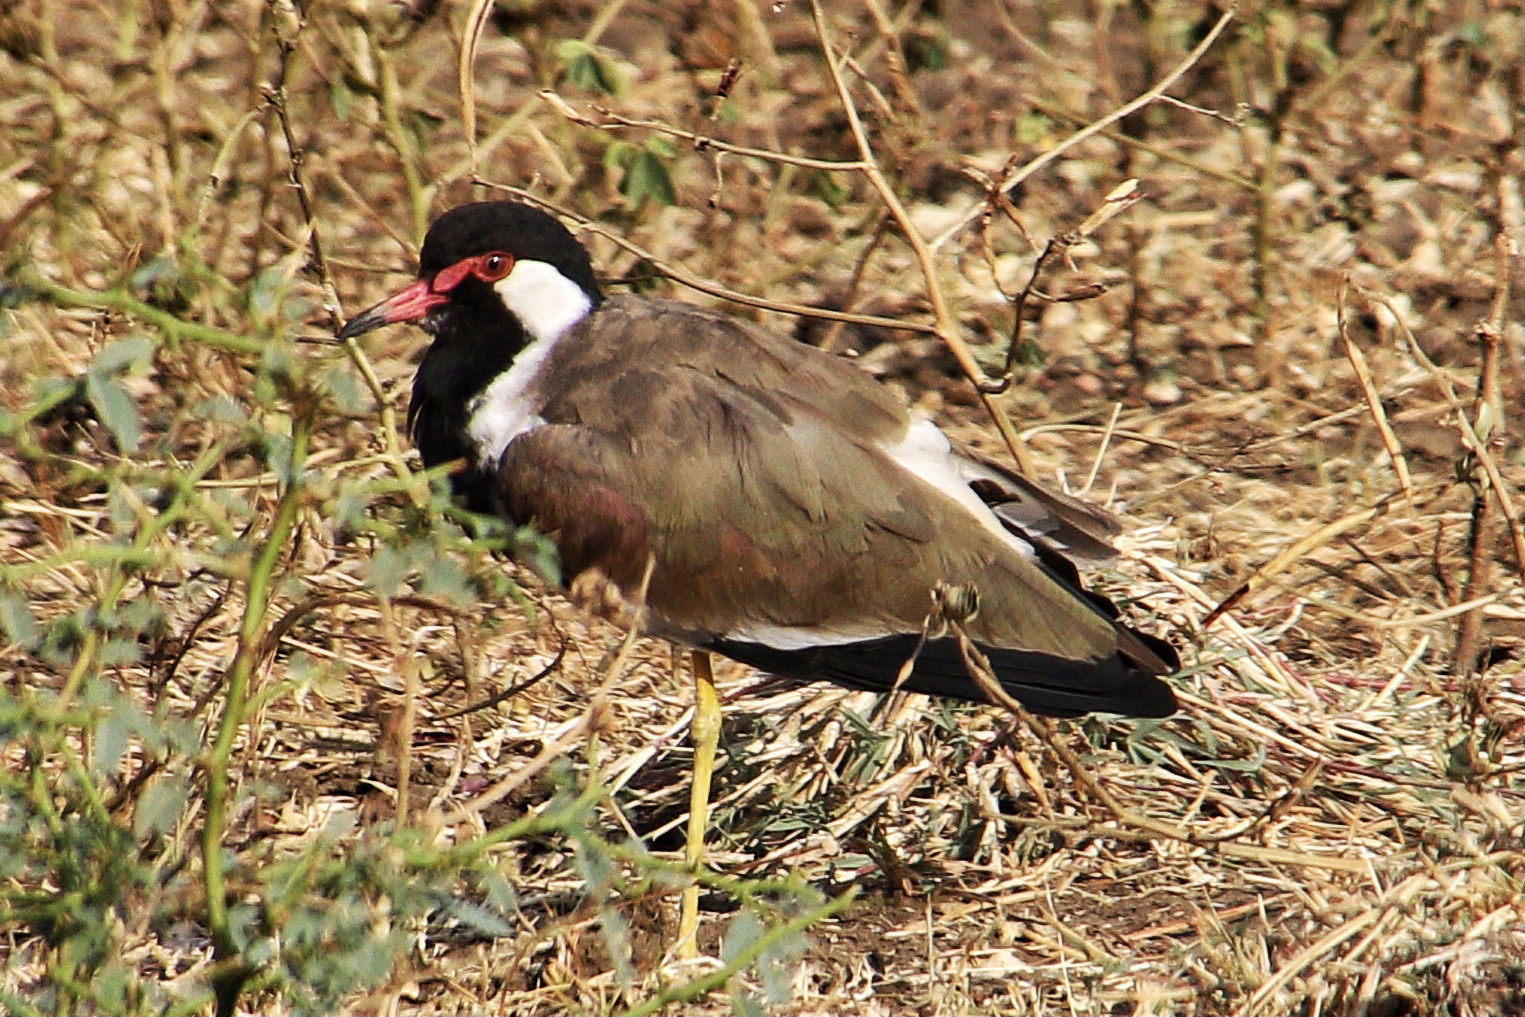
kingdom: Animalia
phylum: Chordata
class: Aves
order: Charadriiformes
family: Charadriidae
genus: Vanellus
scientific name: Vanellus indicus
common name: Red-wattled lapwing
